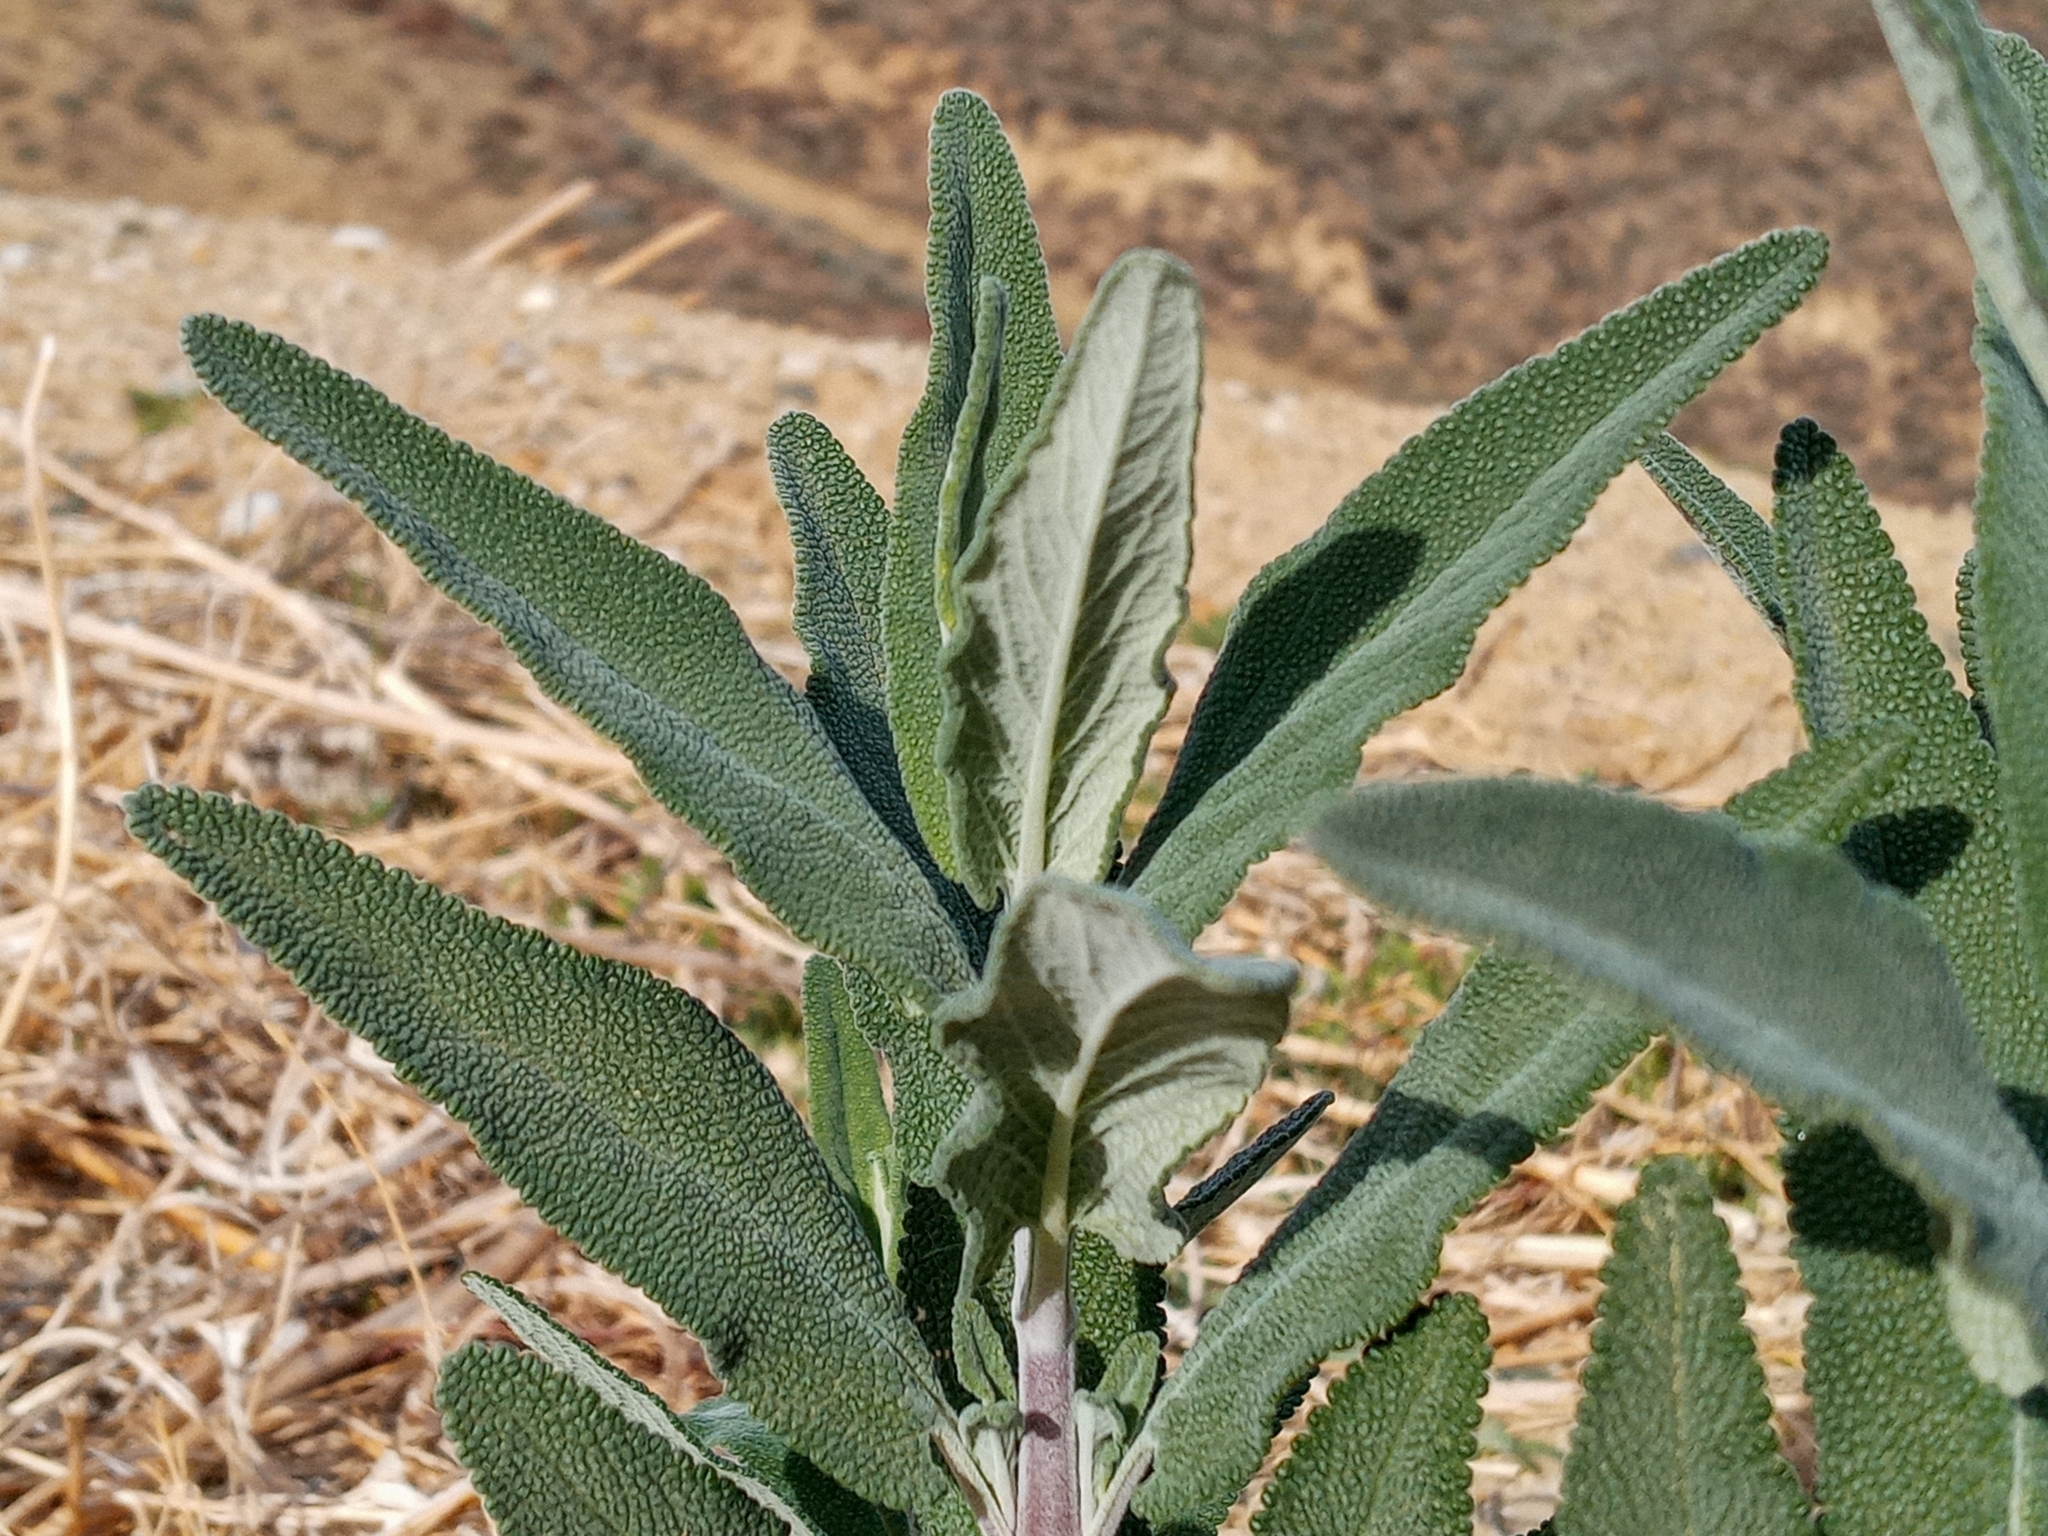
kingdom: Plantae
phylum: Tracheophyta
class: Magnoliopsida
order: Lamiales
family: Lamiaceae
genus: Salvia
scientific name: Salvia leucophylla
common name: Purple sage
